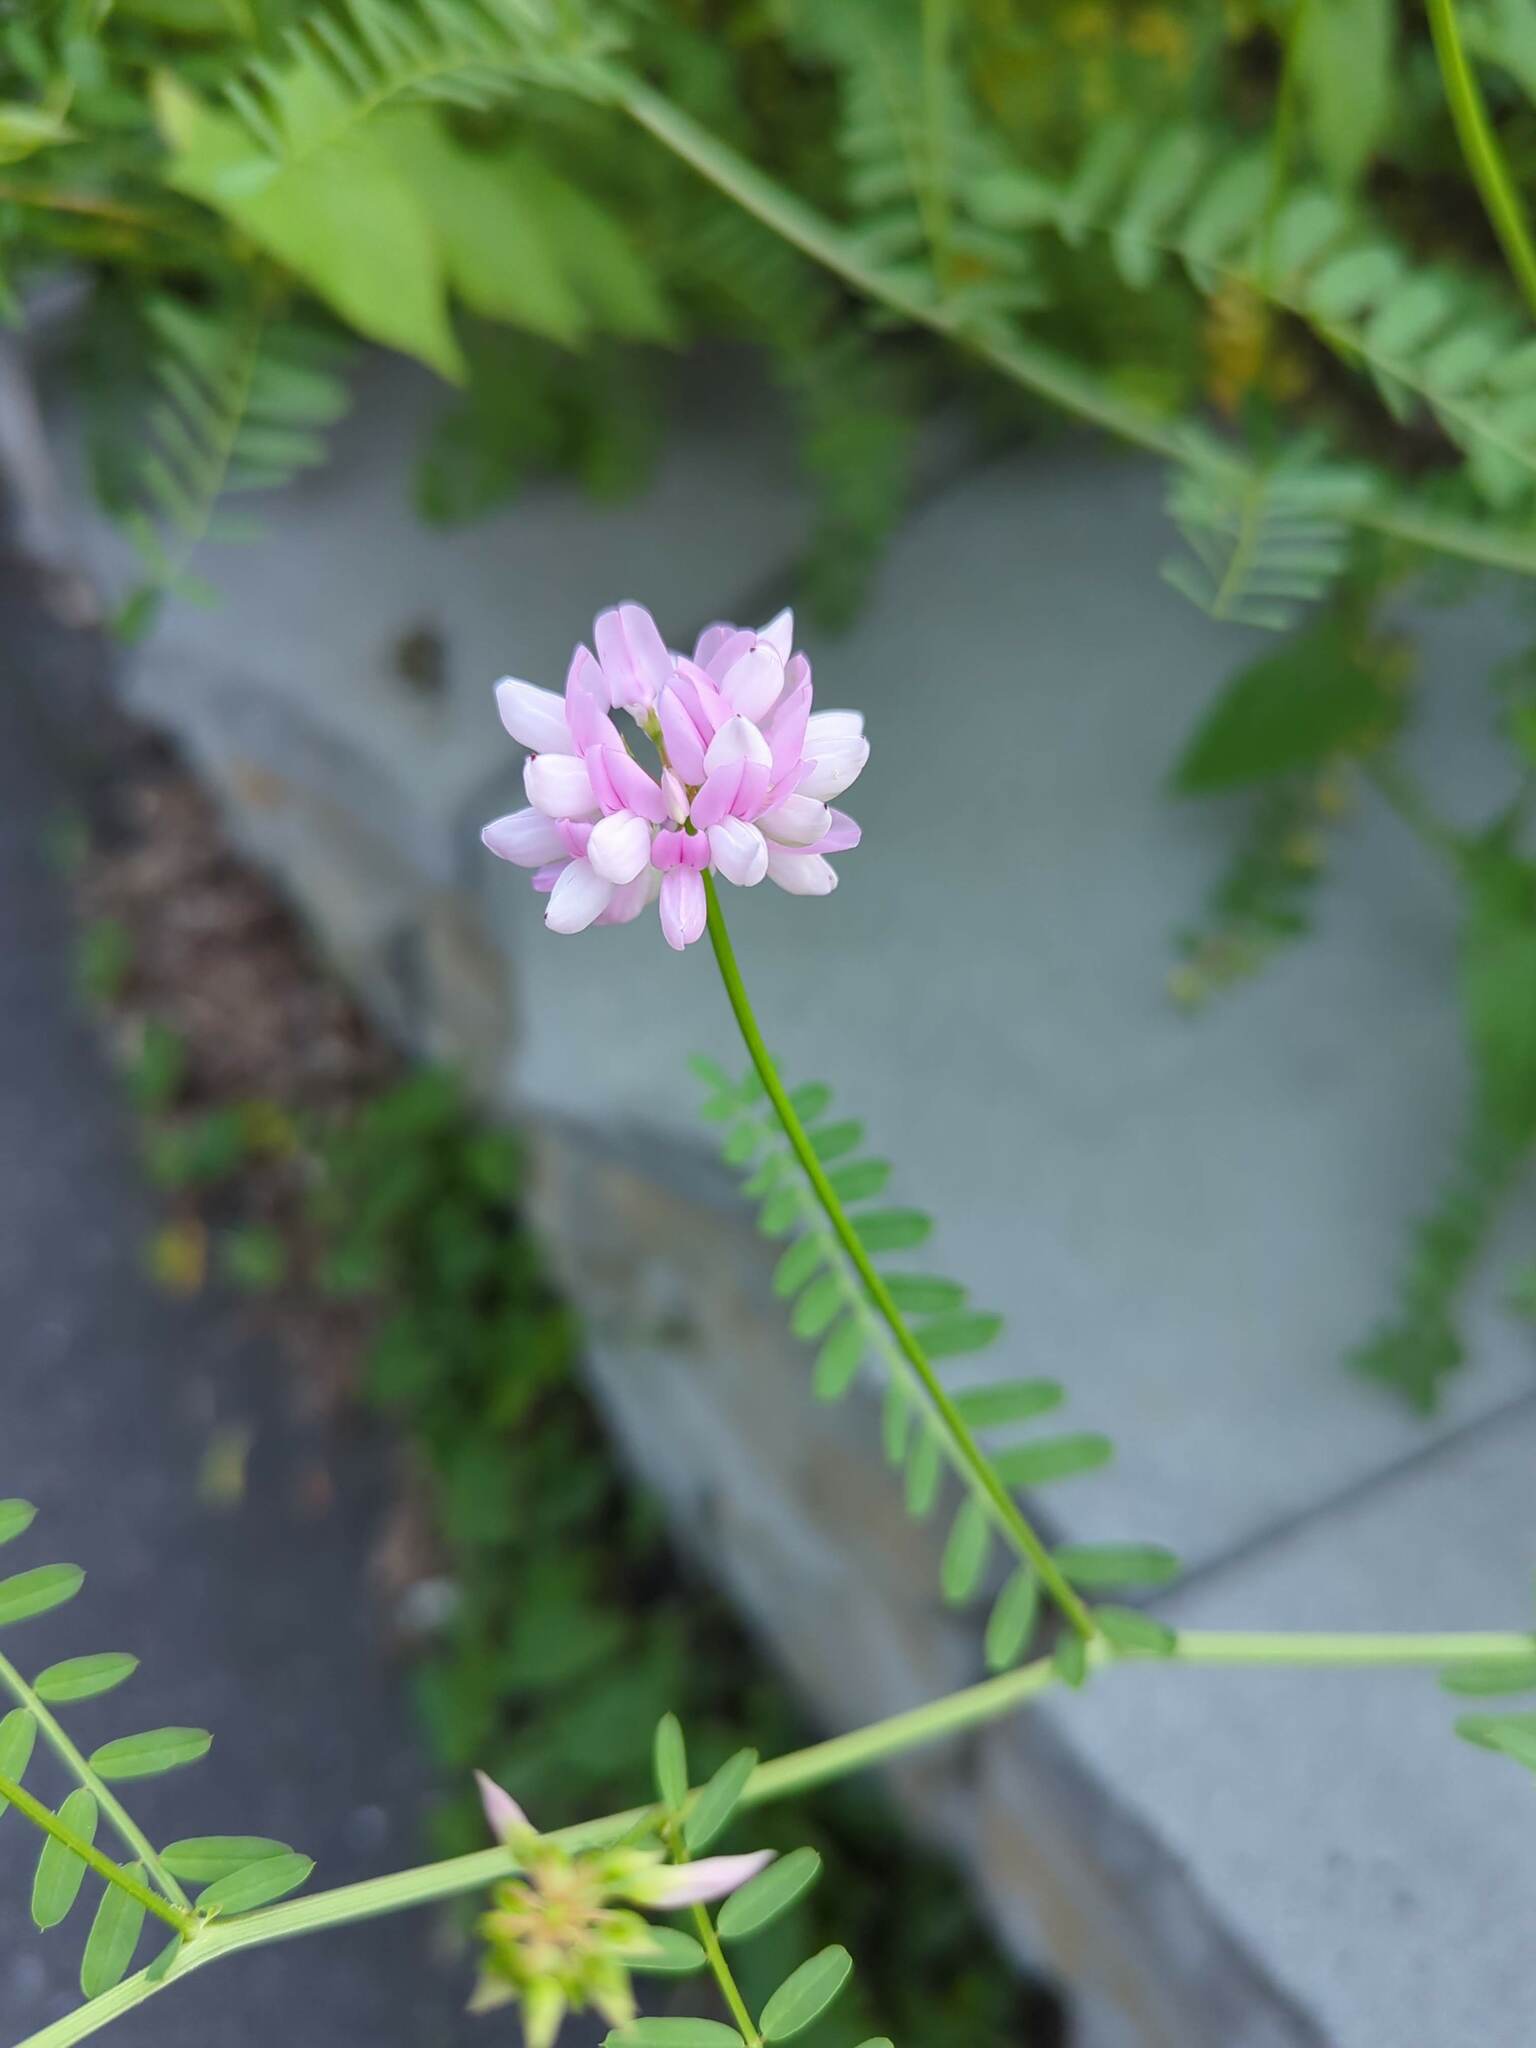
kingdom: Plantae
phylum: Tracheophyta
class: Magnoliopsida
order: Fabales
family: Fabaceae
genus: Coronilla
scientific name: Coronilla varia
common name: Crownvetch
